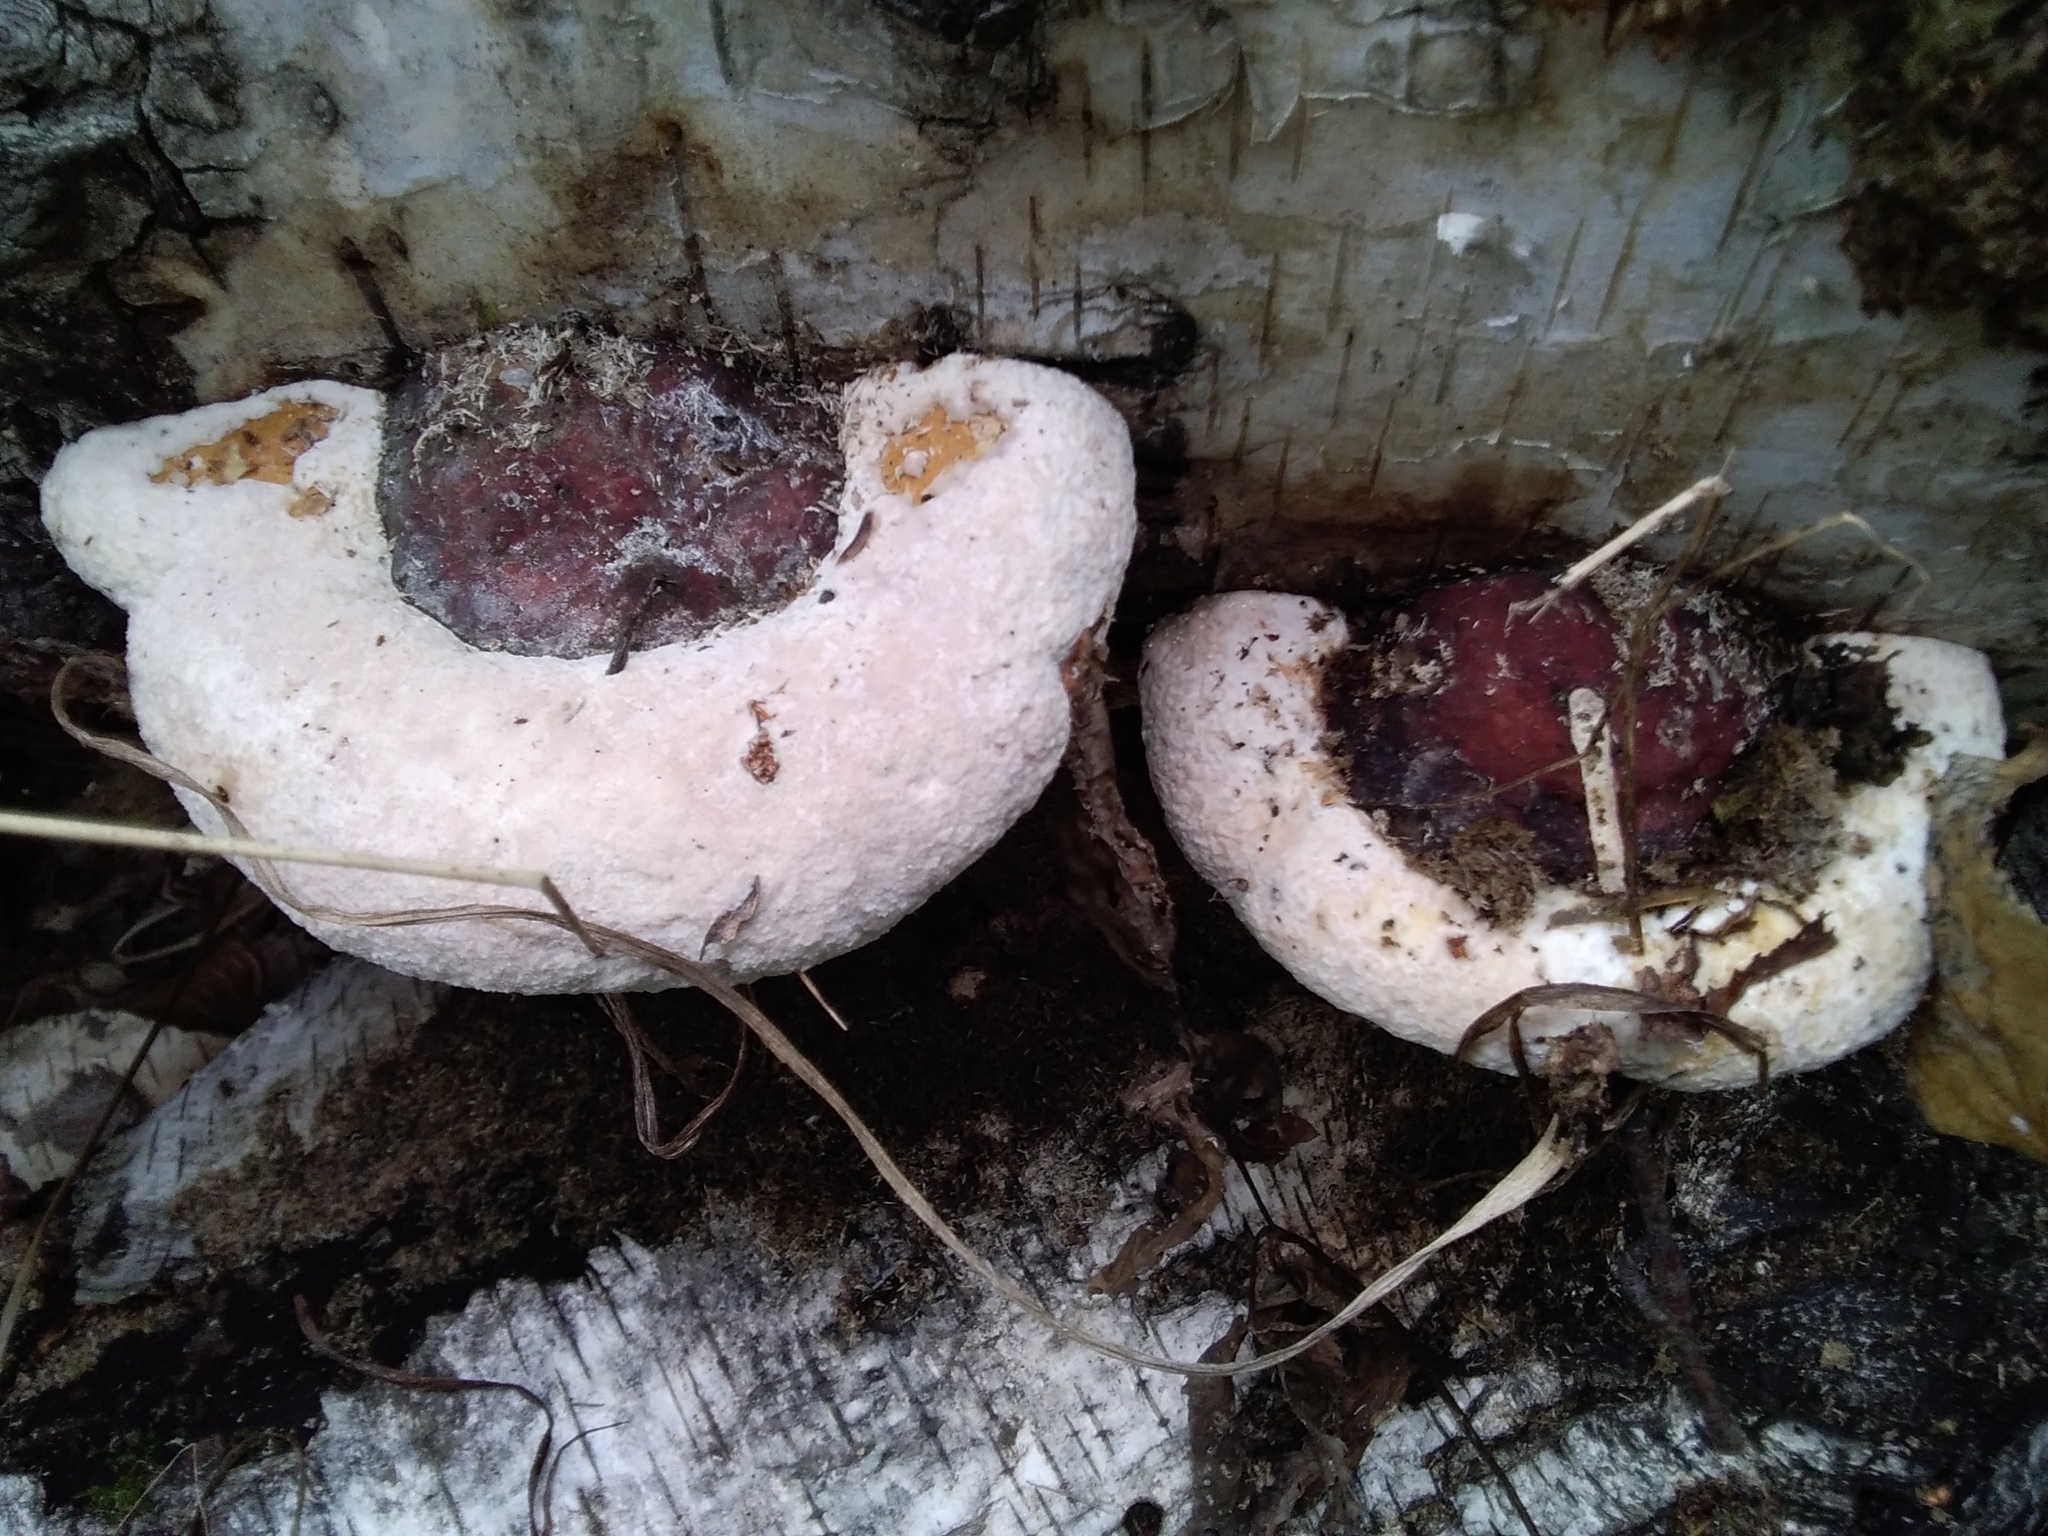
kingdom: Fungi
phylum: Basidiomycota
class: Agaricomycetes
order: Polyporales
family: Fomitopsidaceae
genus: Fomitopsis
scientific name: Fomitopsis pinicola
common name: Red-belted bracket
